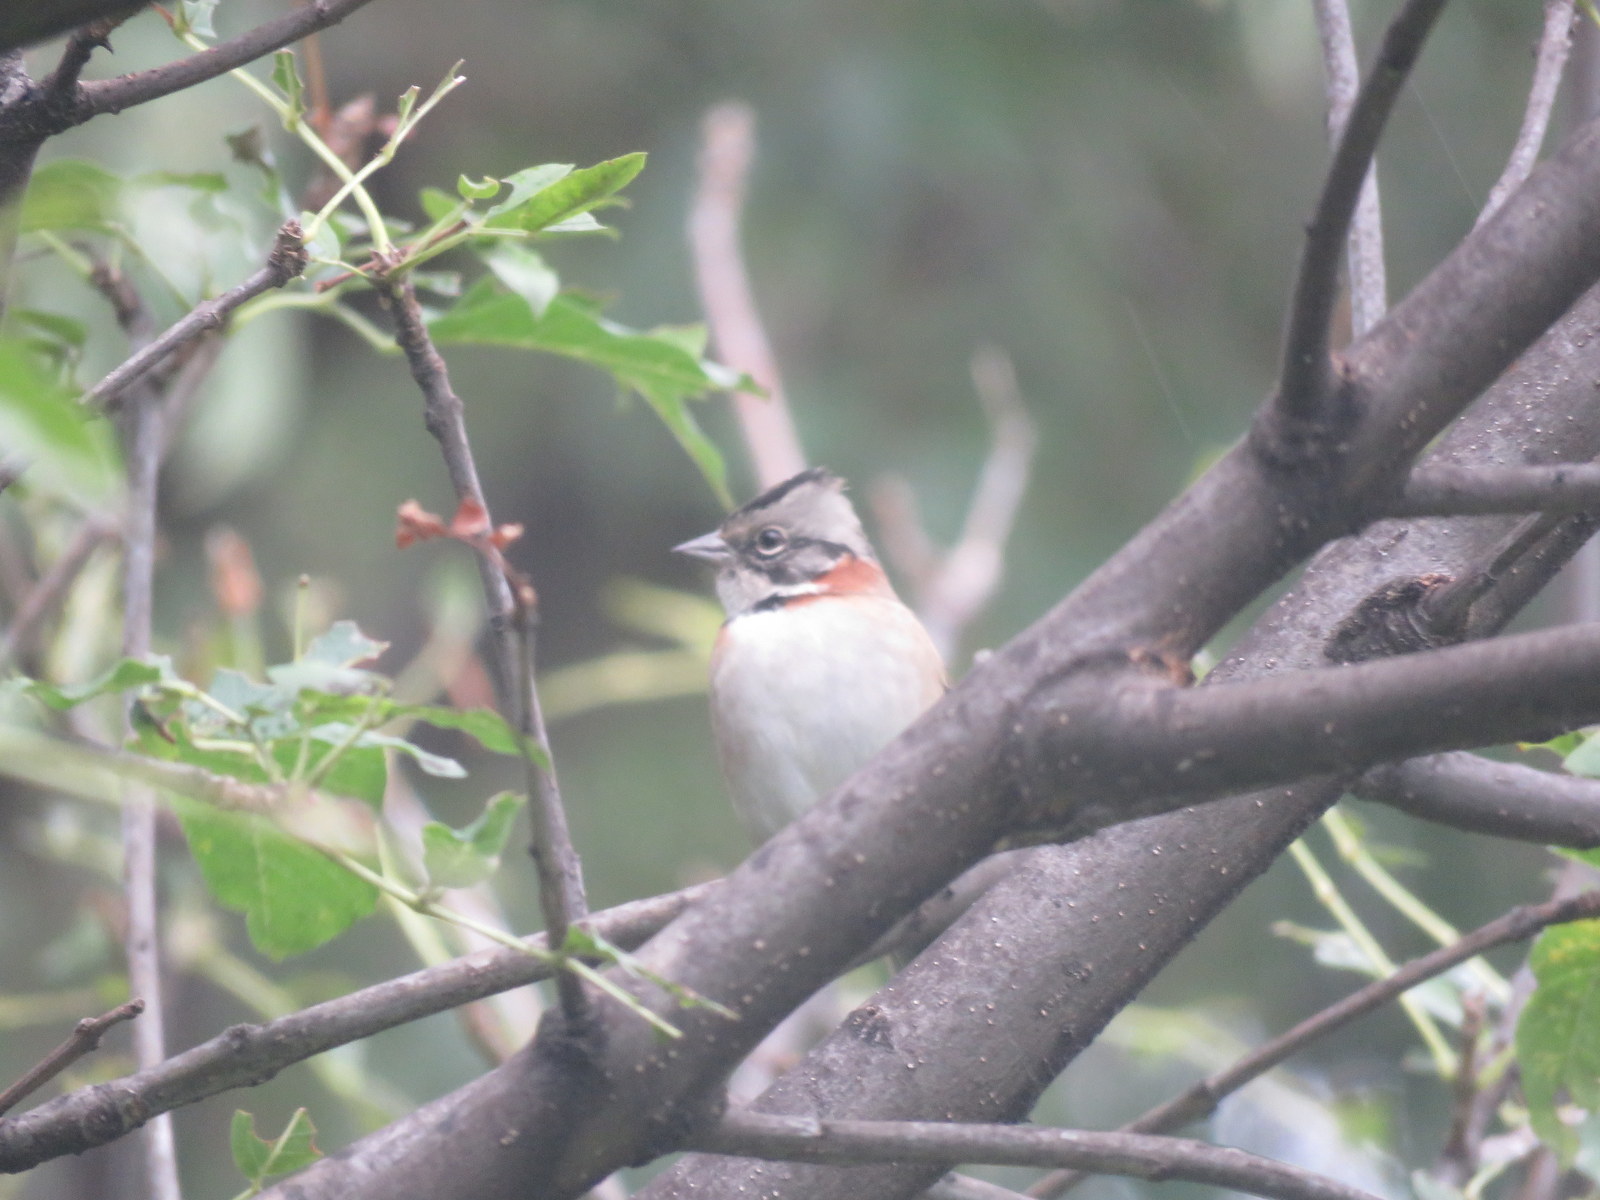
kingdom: Animalia
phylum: Chordata
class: Aves
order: Passeriformes
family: Passerellidae
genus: Zonotrichia
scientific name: Zonotrichia capensis
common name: Rufous-collared sparrow
